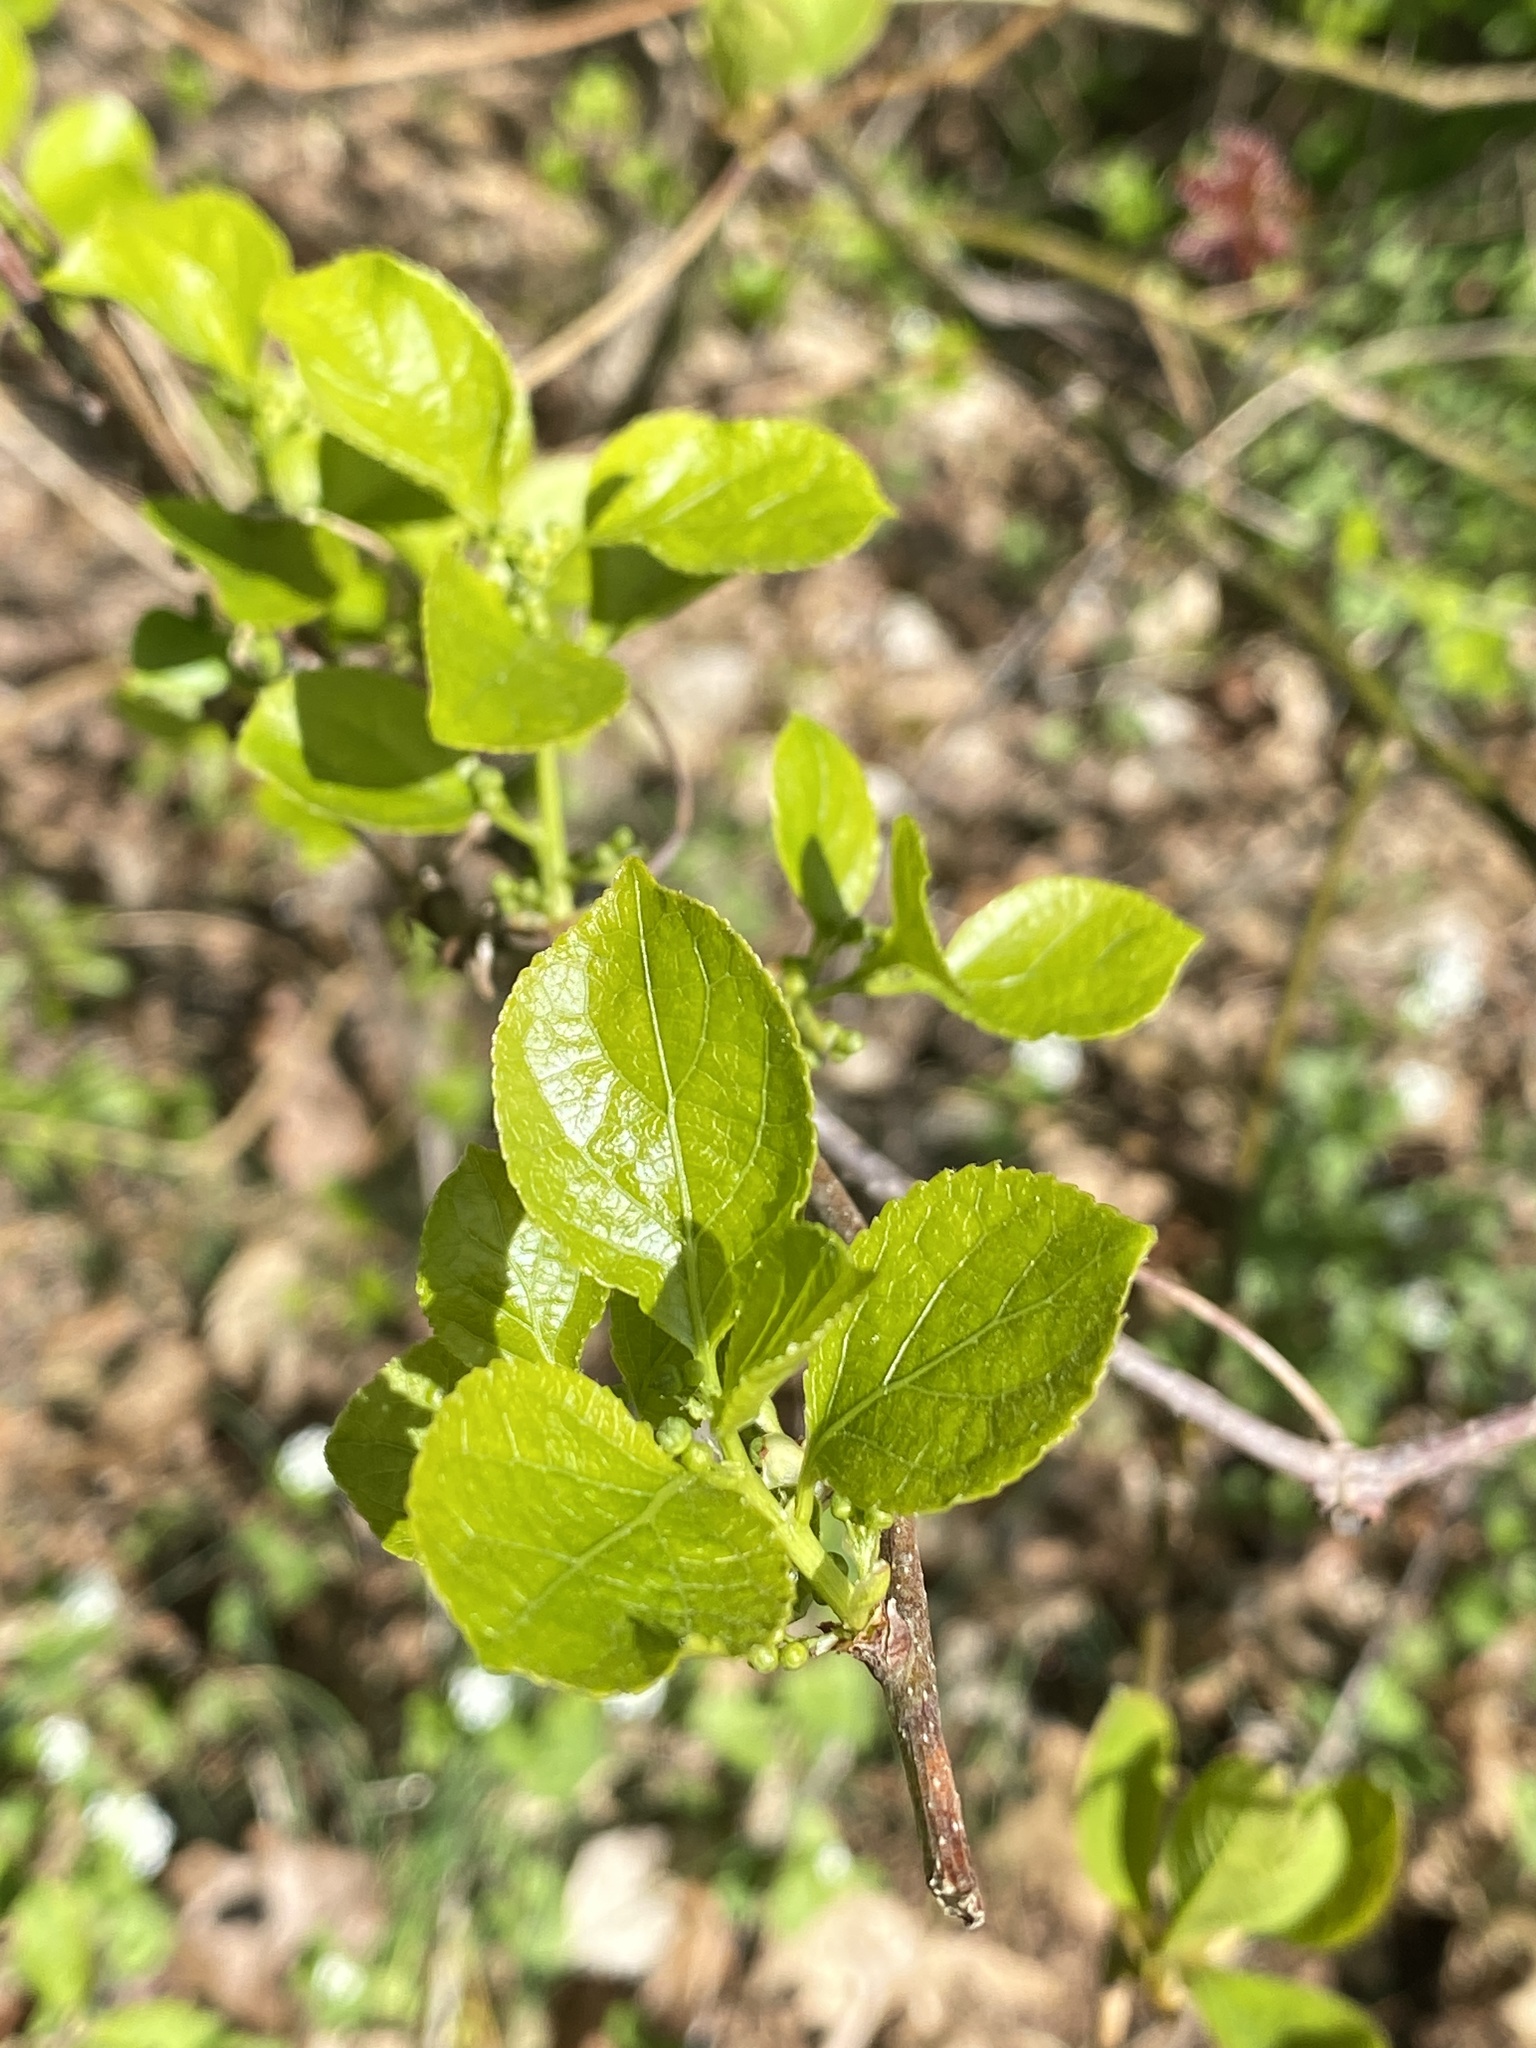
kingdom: Plantae
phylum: Tracheophyta
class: Magnoliopsida
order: Celastrales
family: Celastraceae
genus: Celastrus
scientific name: Celastrus orbiculatus
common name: Oriental bittersweet
